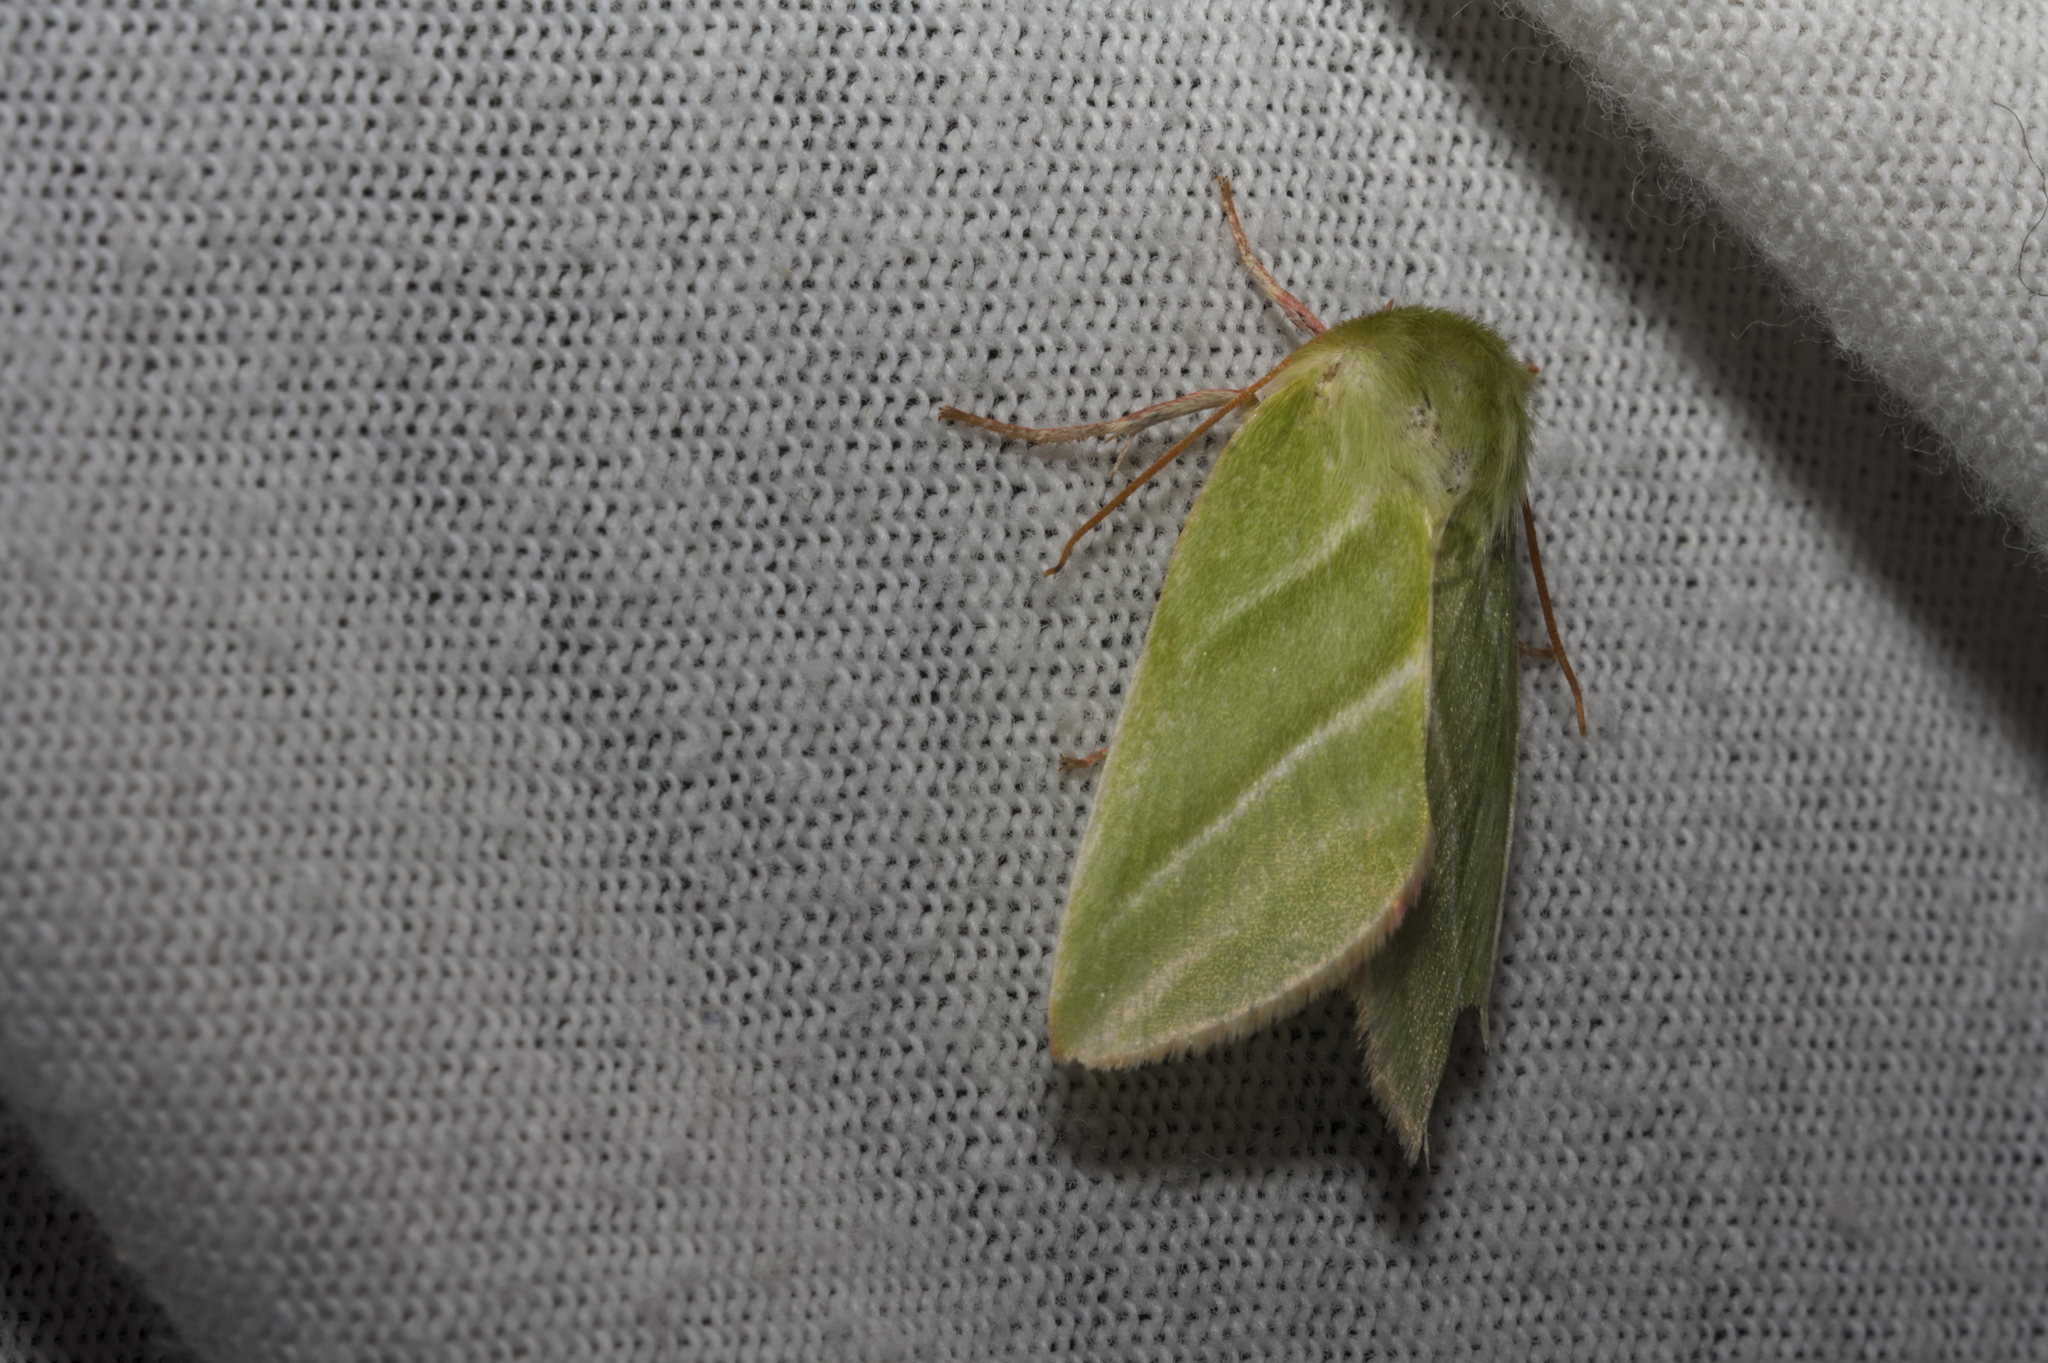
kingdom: Animalia
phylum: Arthropoda
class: Insecta
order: Lepidoptera
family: Nolidae
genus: Pseudoips
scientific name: Pseudoips prasinana
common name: Green silver-lines
